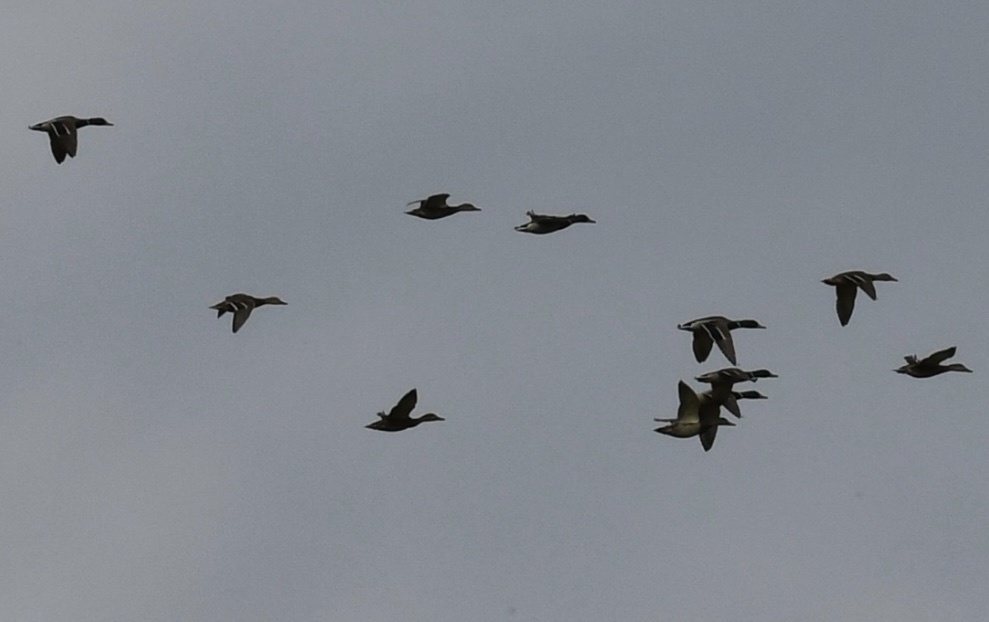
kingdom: Animalia
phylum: Chordata
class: Aves
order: Anseriformes
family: Anatidae
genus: Anas
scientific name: Anas platyrhynchos
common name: Mallard
